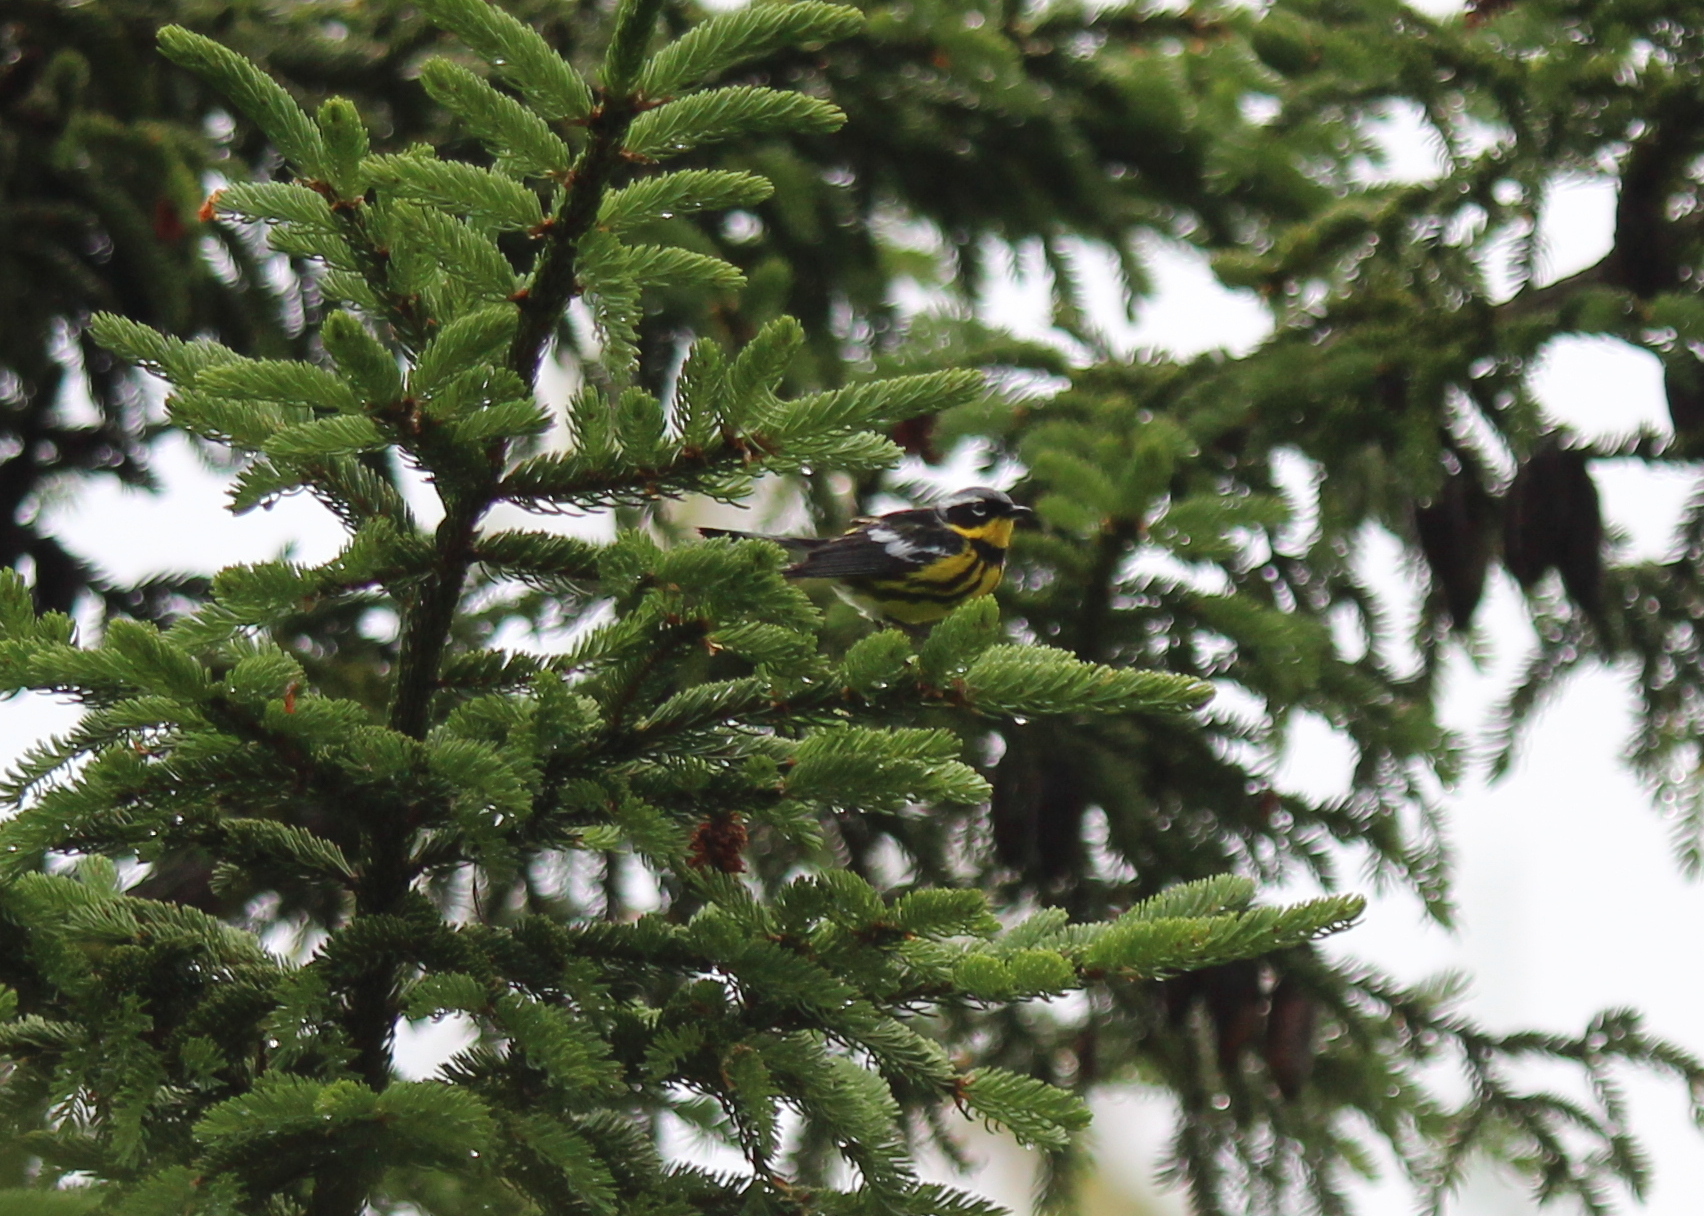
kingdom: Animalia
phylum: Chordata
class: Aves
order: Passeriformes
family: Parulidae
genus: Setophaga
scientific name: Setophaga magnolia
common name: Magnolia warbler
